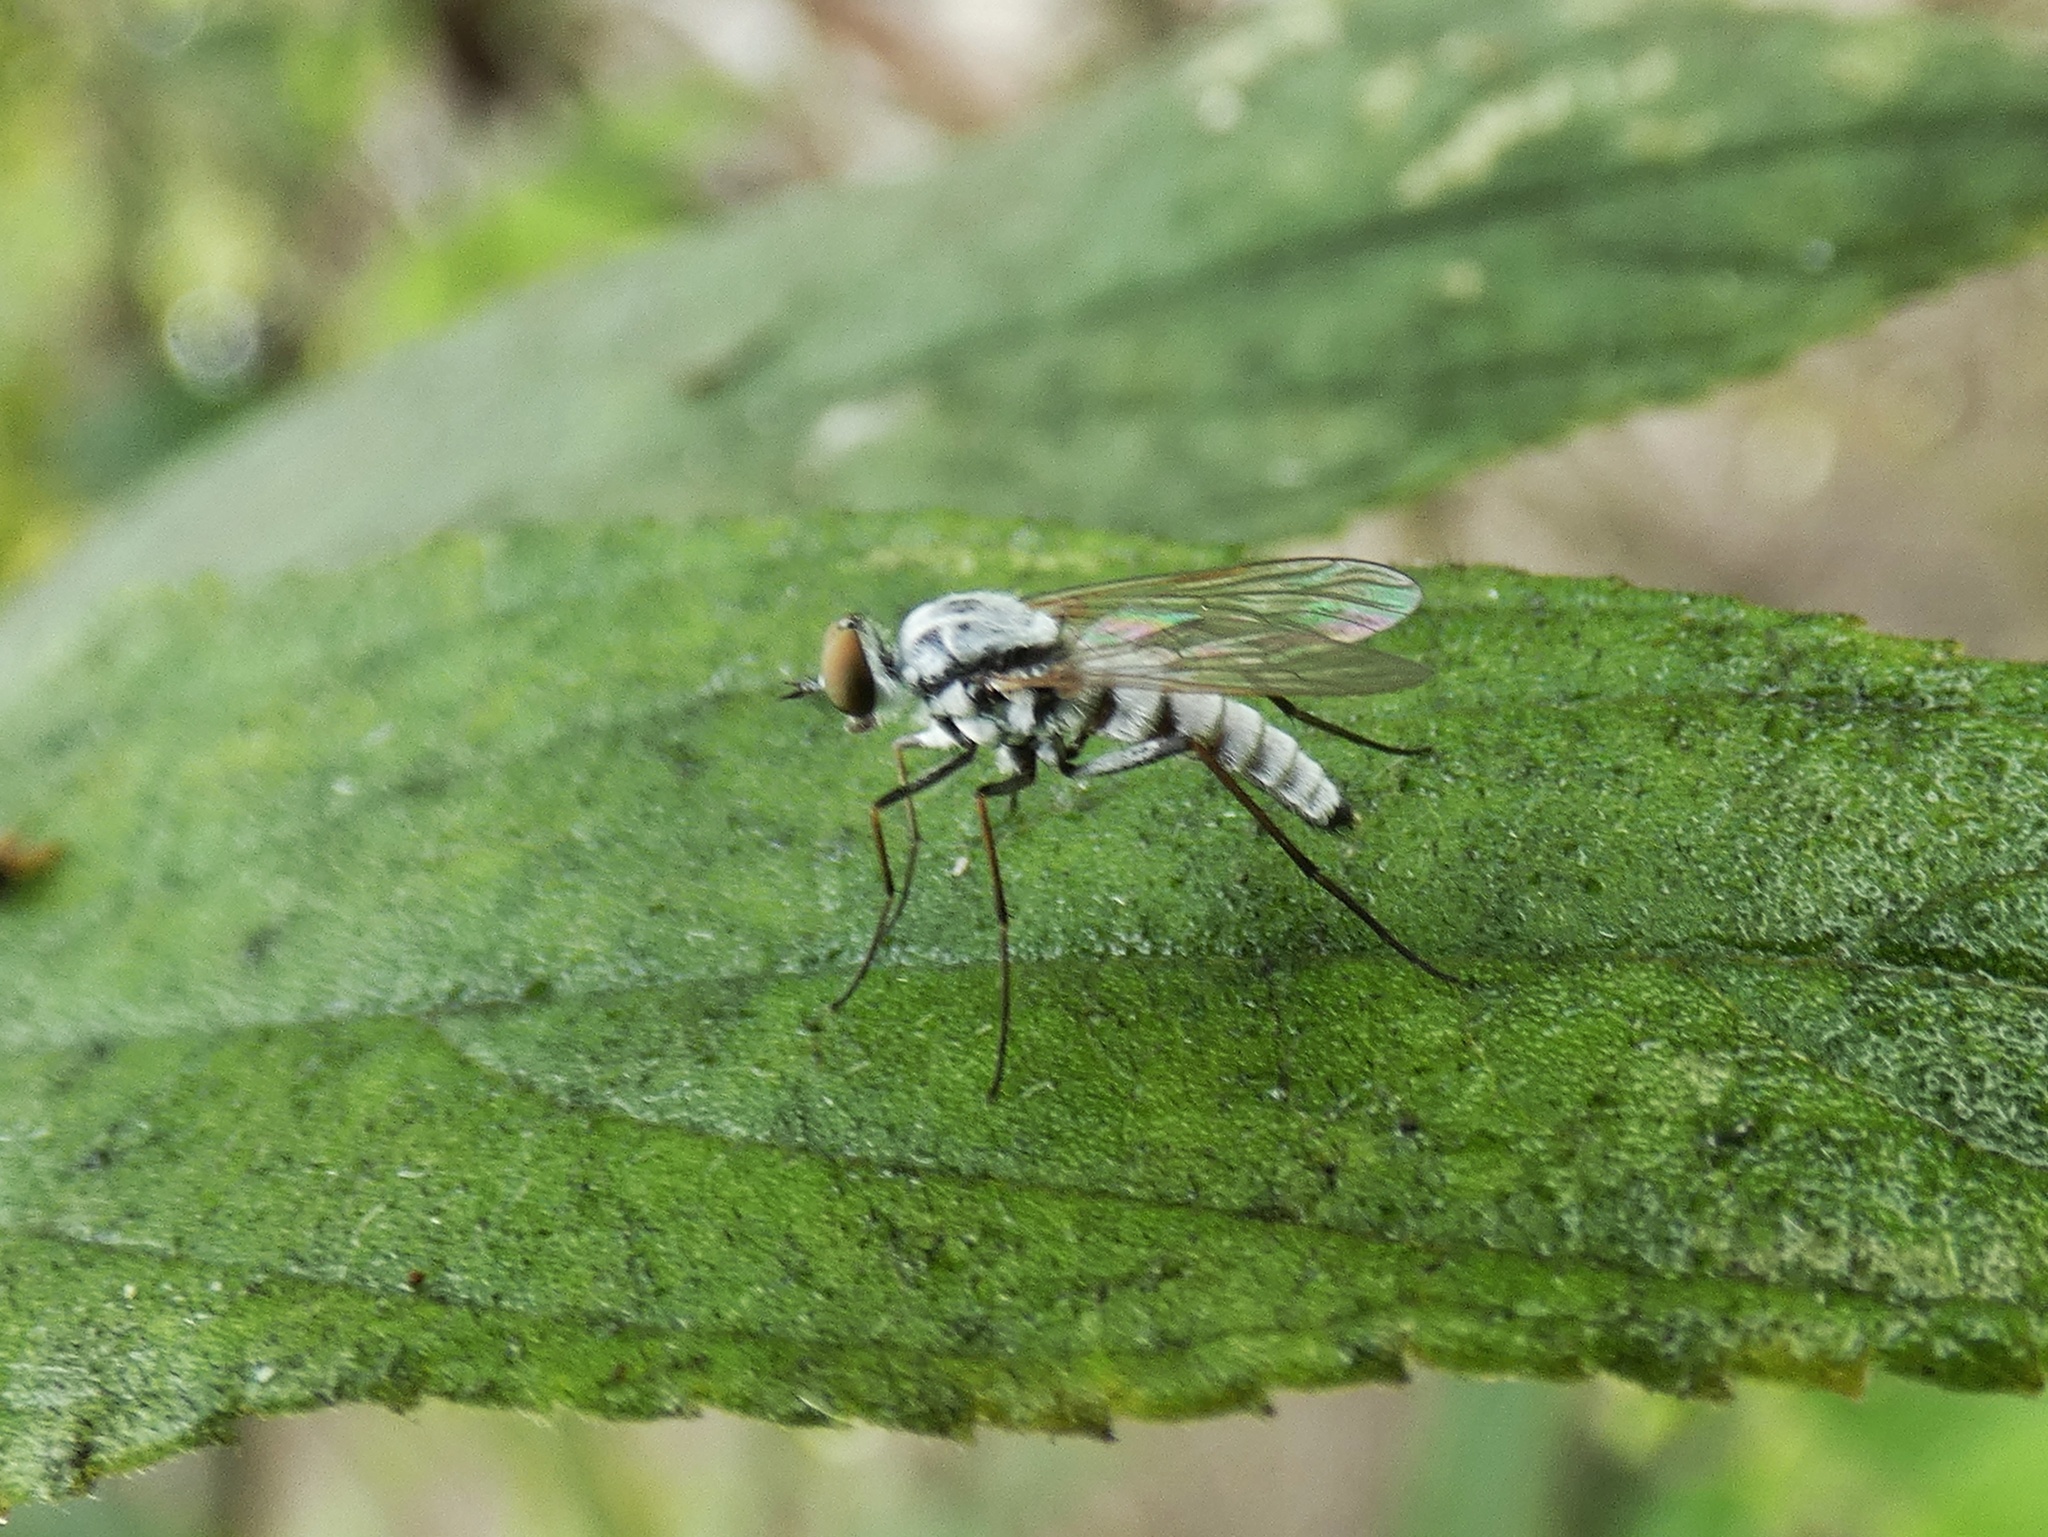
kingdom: Animalia
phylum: Arthropoda
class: Insecta
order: Diptera
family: Therevidae
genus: Penniverpa
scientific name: Penniverpa multisetosa
